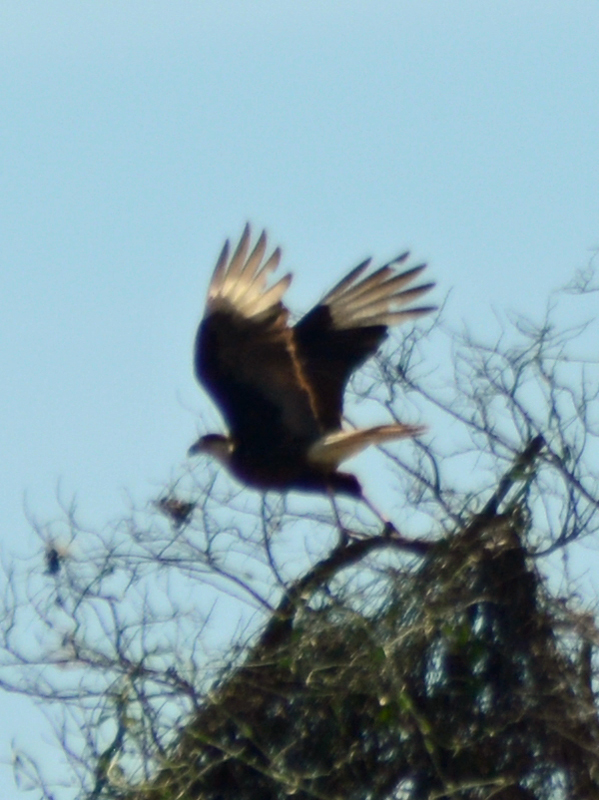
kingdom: Animalia
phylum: Chordata
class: Aves
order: Falconiformes
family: Falconidae
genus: Caracara
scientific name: Caracara plancus
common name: Southern caracara
